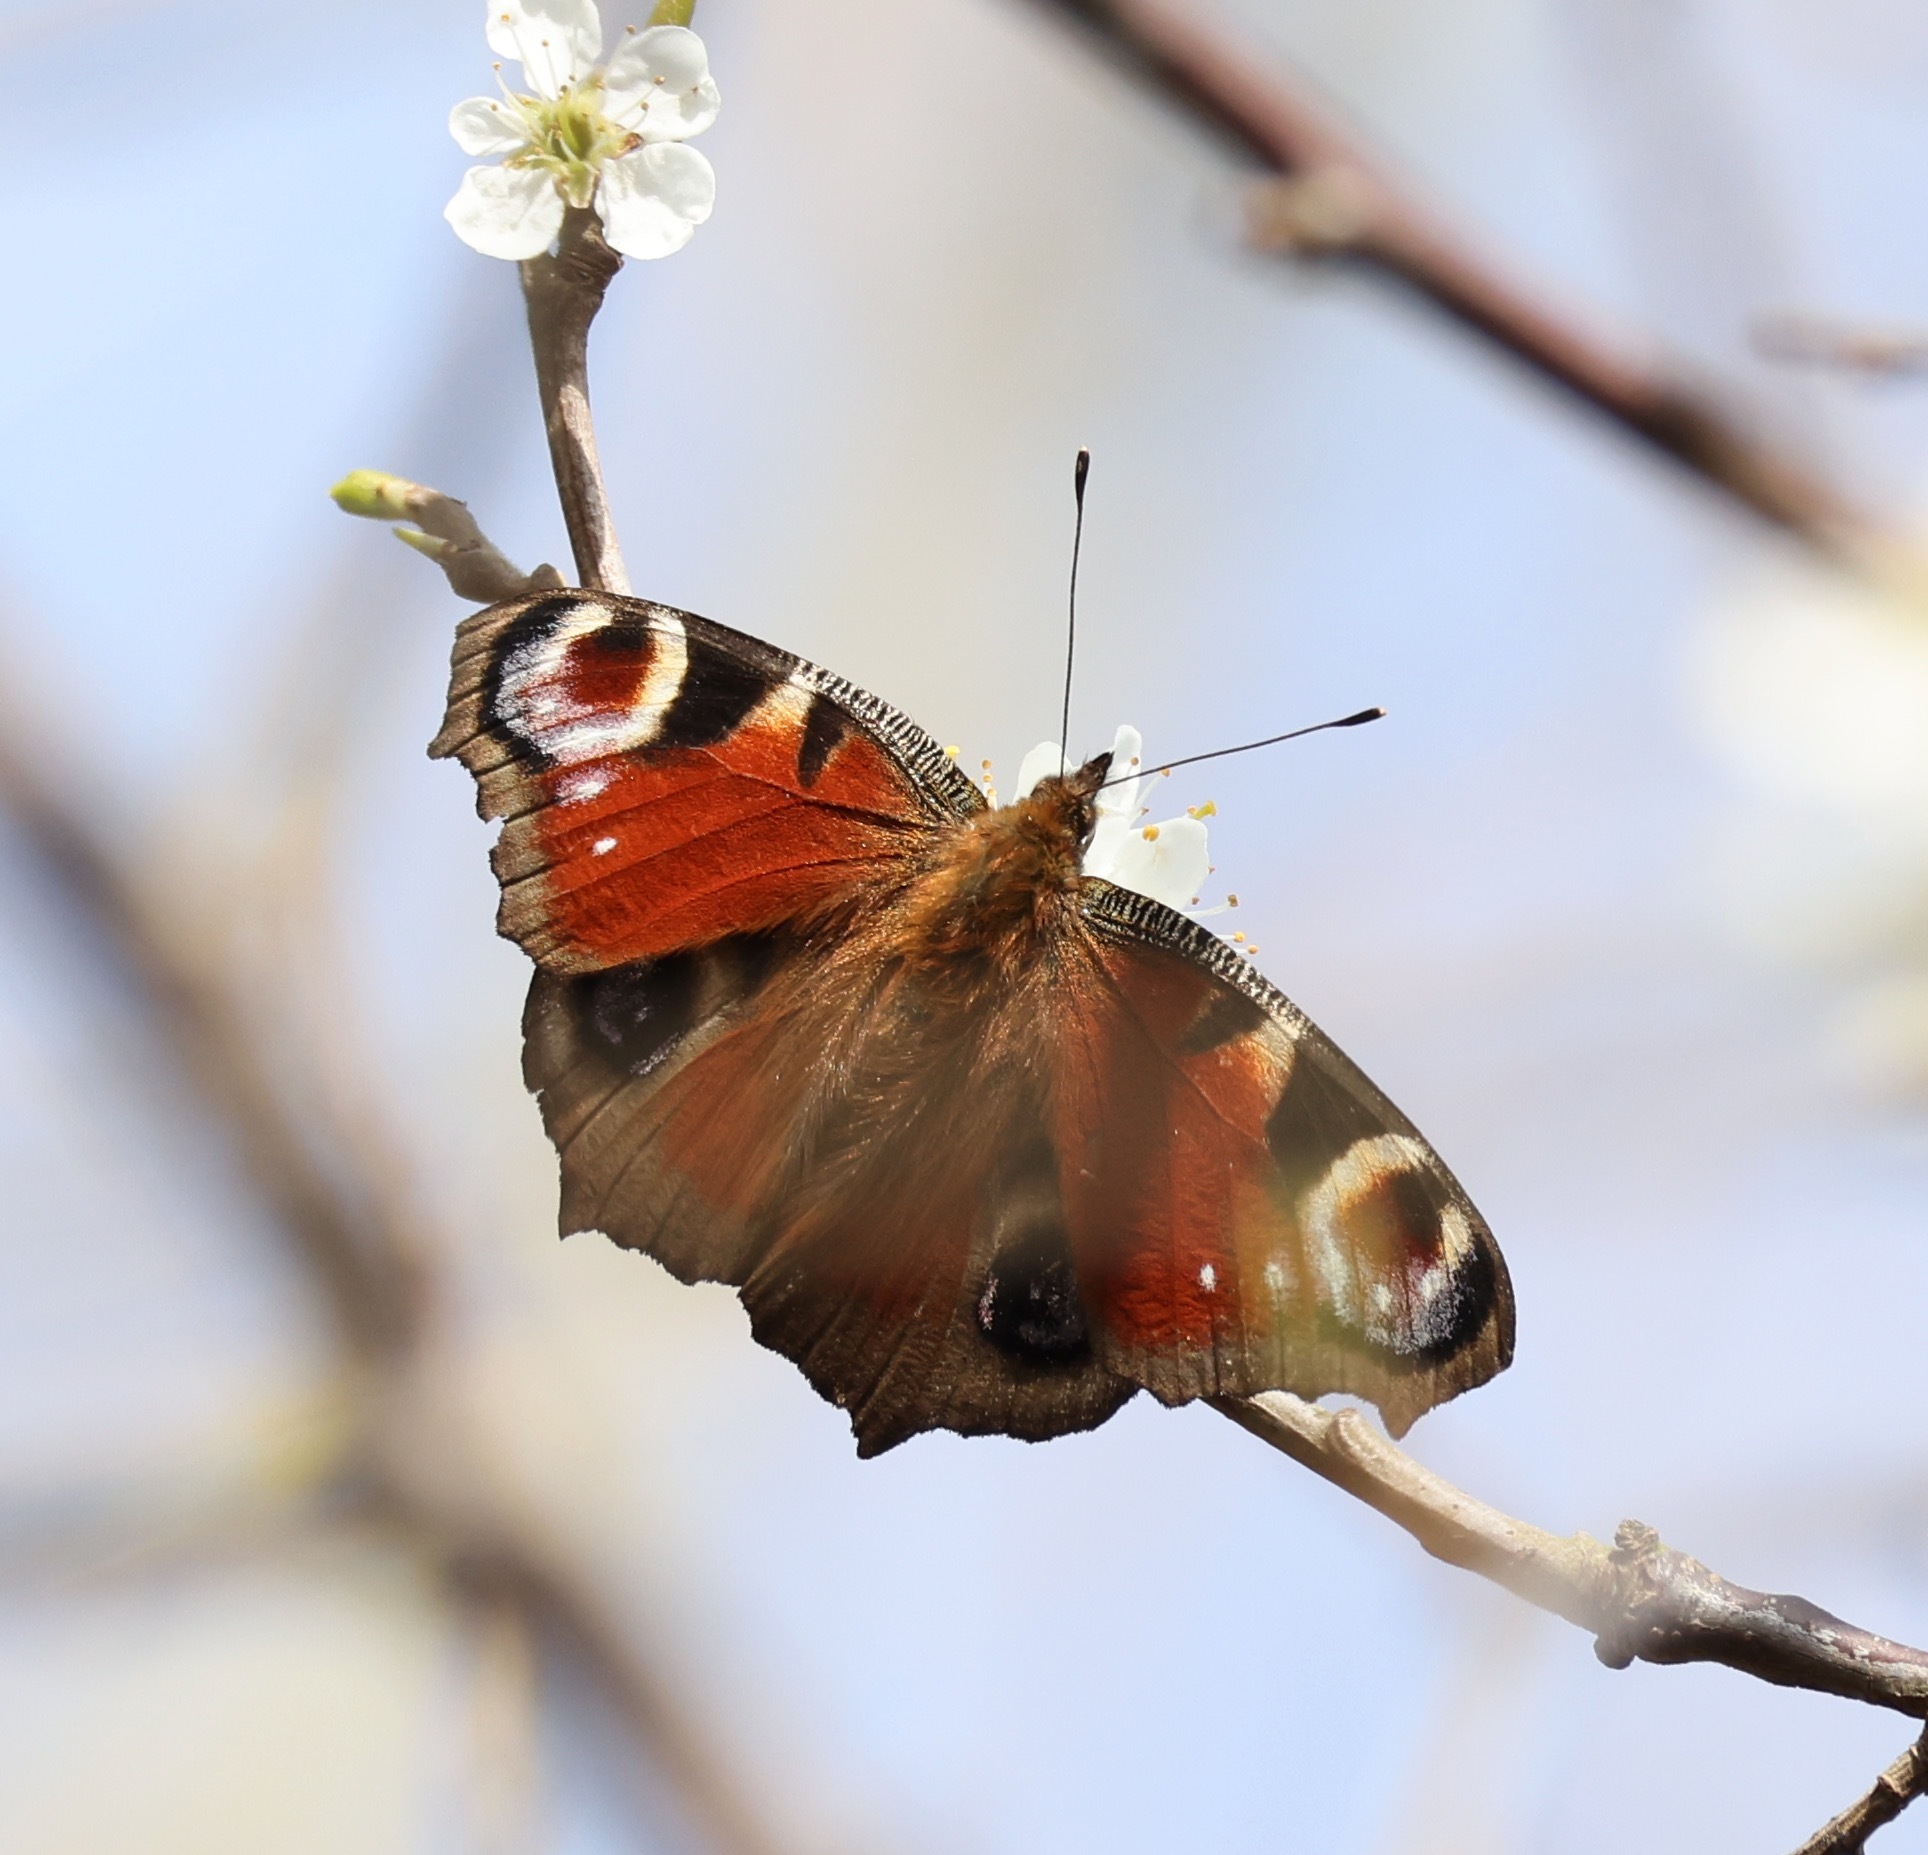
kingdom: Animalia
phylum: Arthropoda
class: Insecta
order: Lepidoptera
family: Nymphalidae
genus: Aglais
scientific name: Aglais io
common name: Peacock
